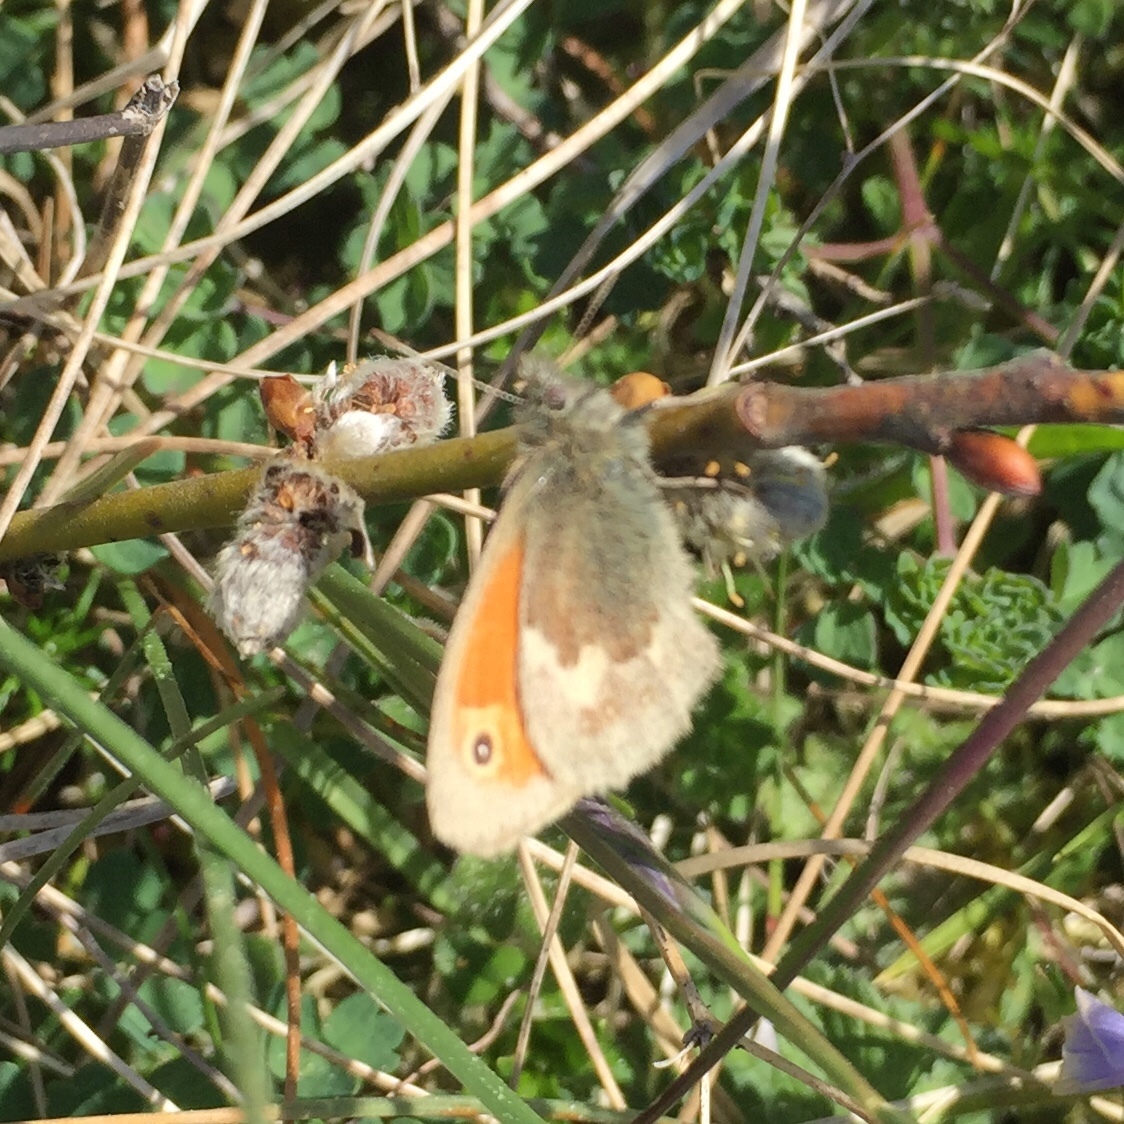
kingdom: Animalia
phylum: Arthropoda
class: Insecta
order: Lepidoptera
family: Nymphalidae
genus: Coenonympha
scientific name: Coenonympha pamphilus
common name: Small heath
